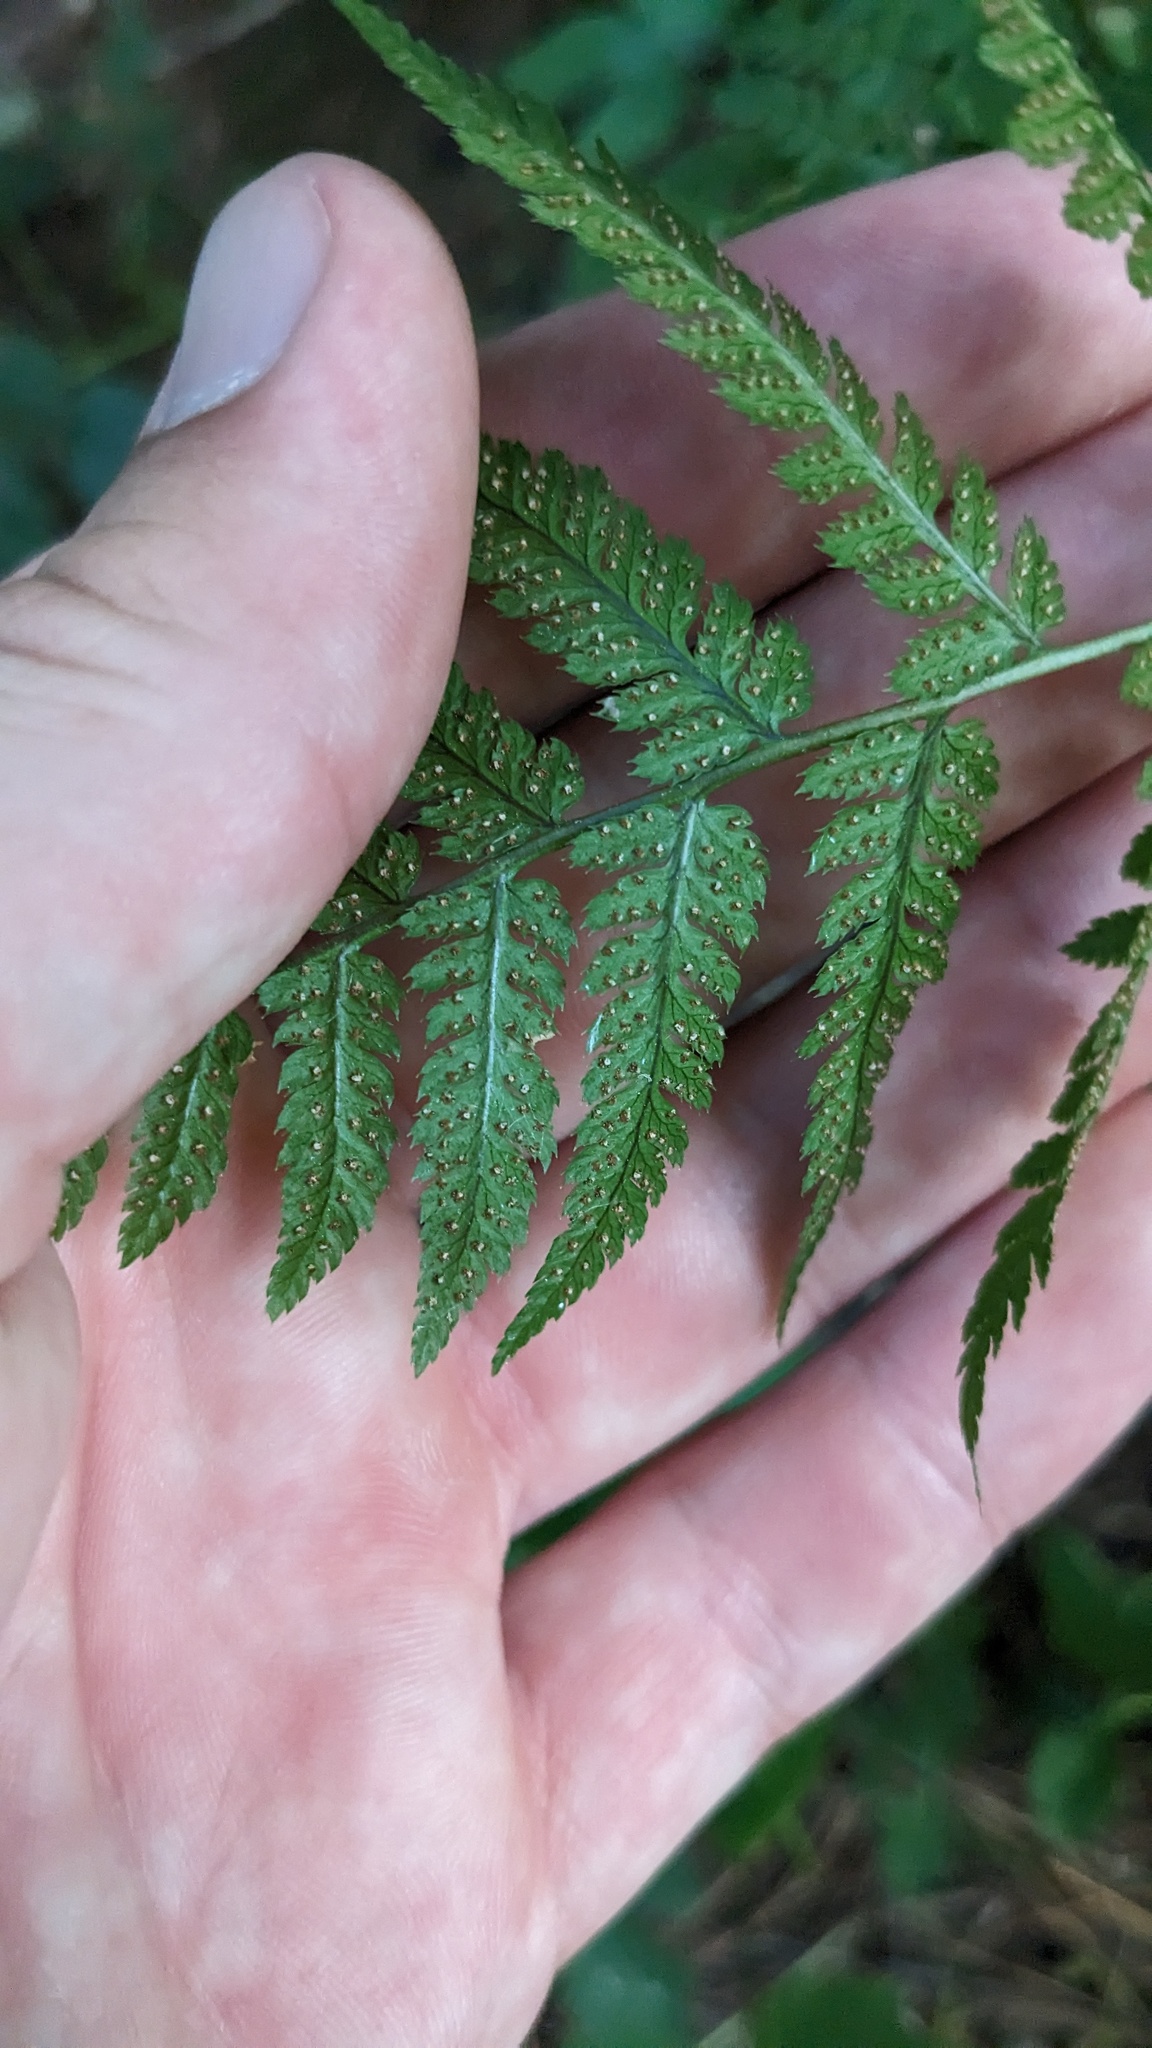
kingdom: Plantae
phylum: Tracheophyta
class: Polypodiopsida
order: Polypodiales
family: Dryopteridaceae
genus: Dryopteris
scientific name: Dryopteris carthusiana
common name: Narrow buckler-fern
